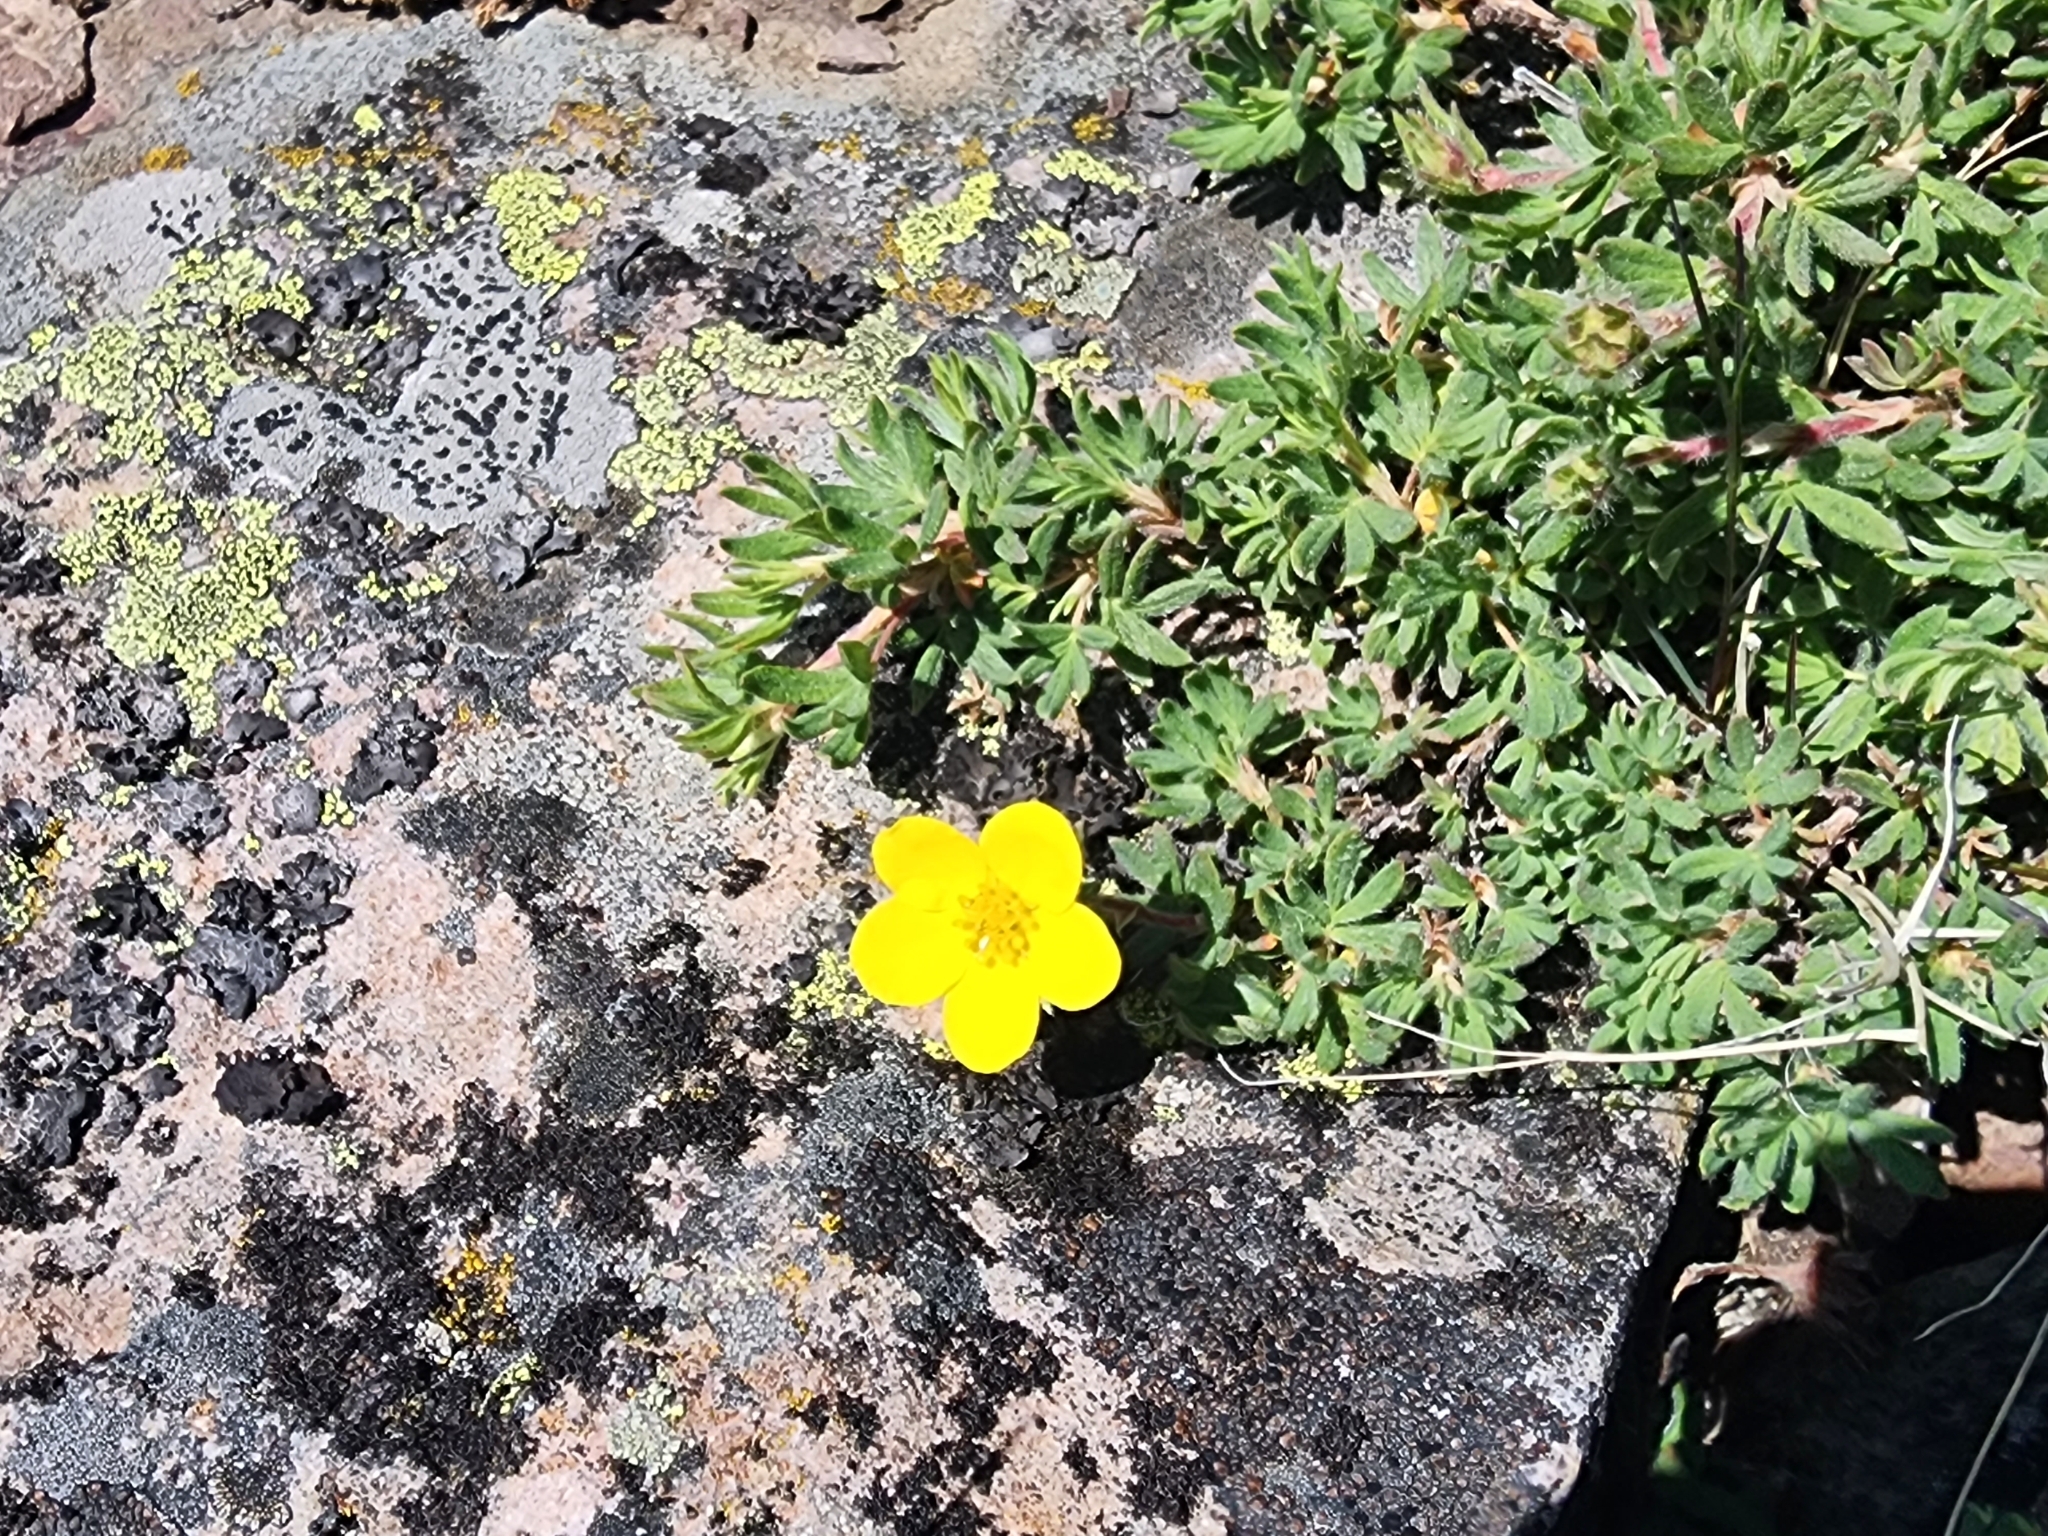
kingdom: Plantae
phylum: Tracheophyta
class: Magnoliopsida
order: Rosales
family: Rosaceae
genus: Dasiphora
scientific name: Dasiphora fruticosa
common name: Shrubby cinquefoil
